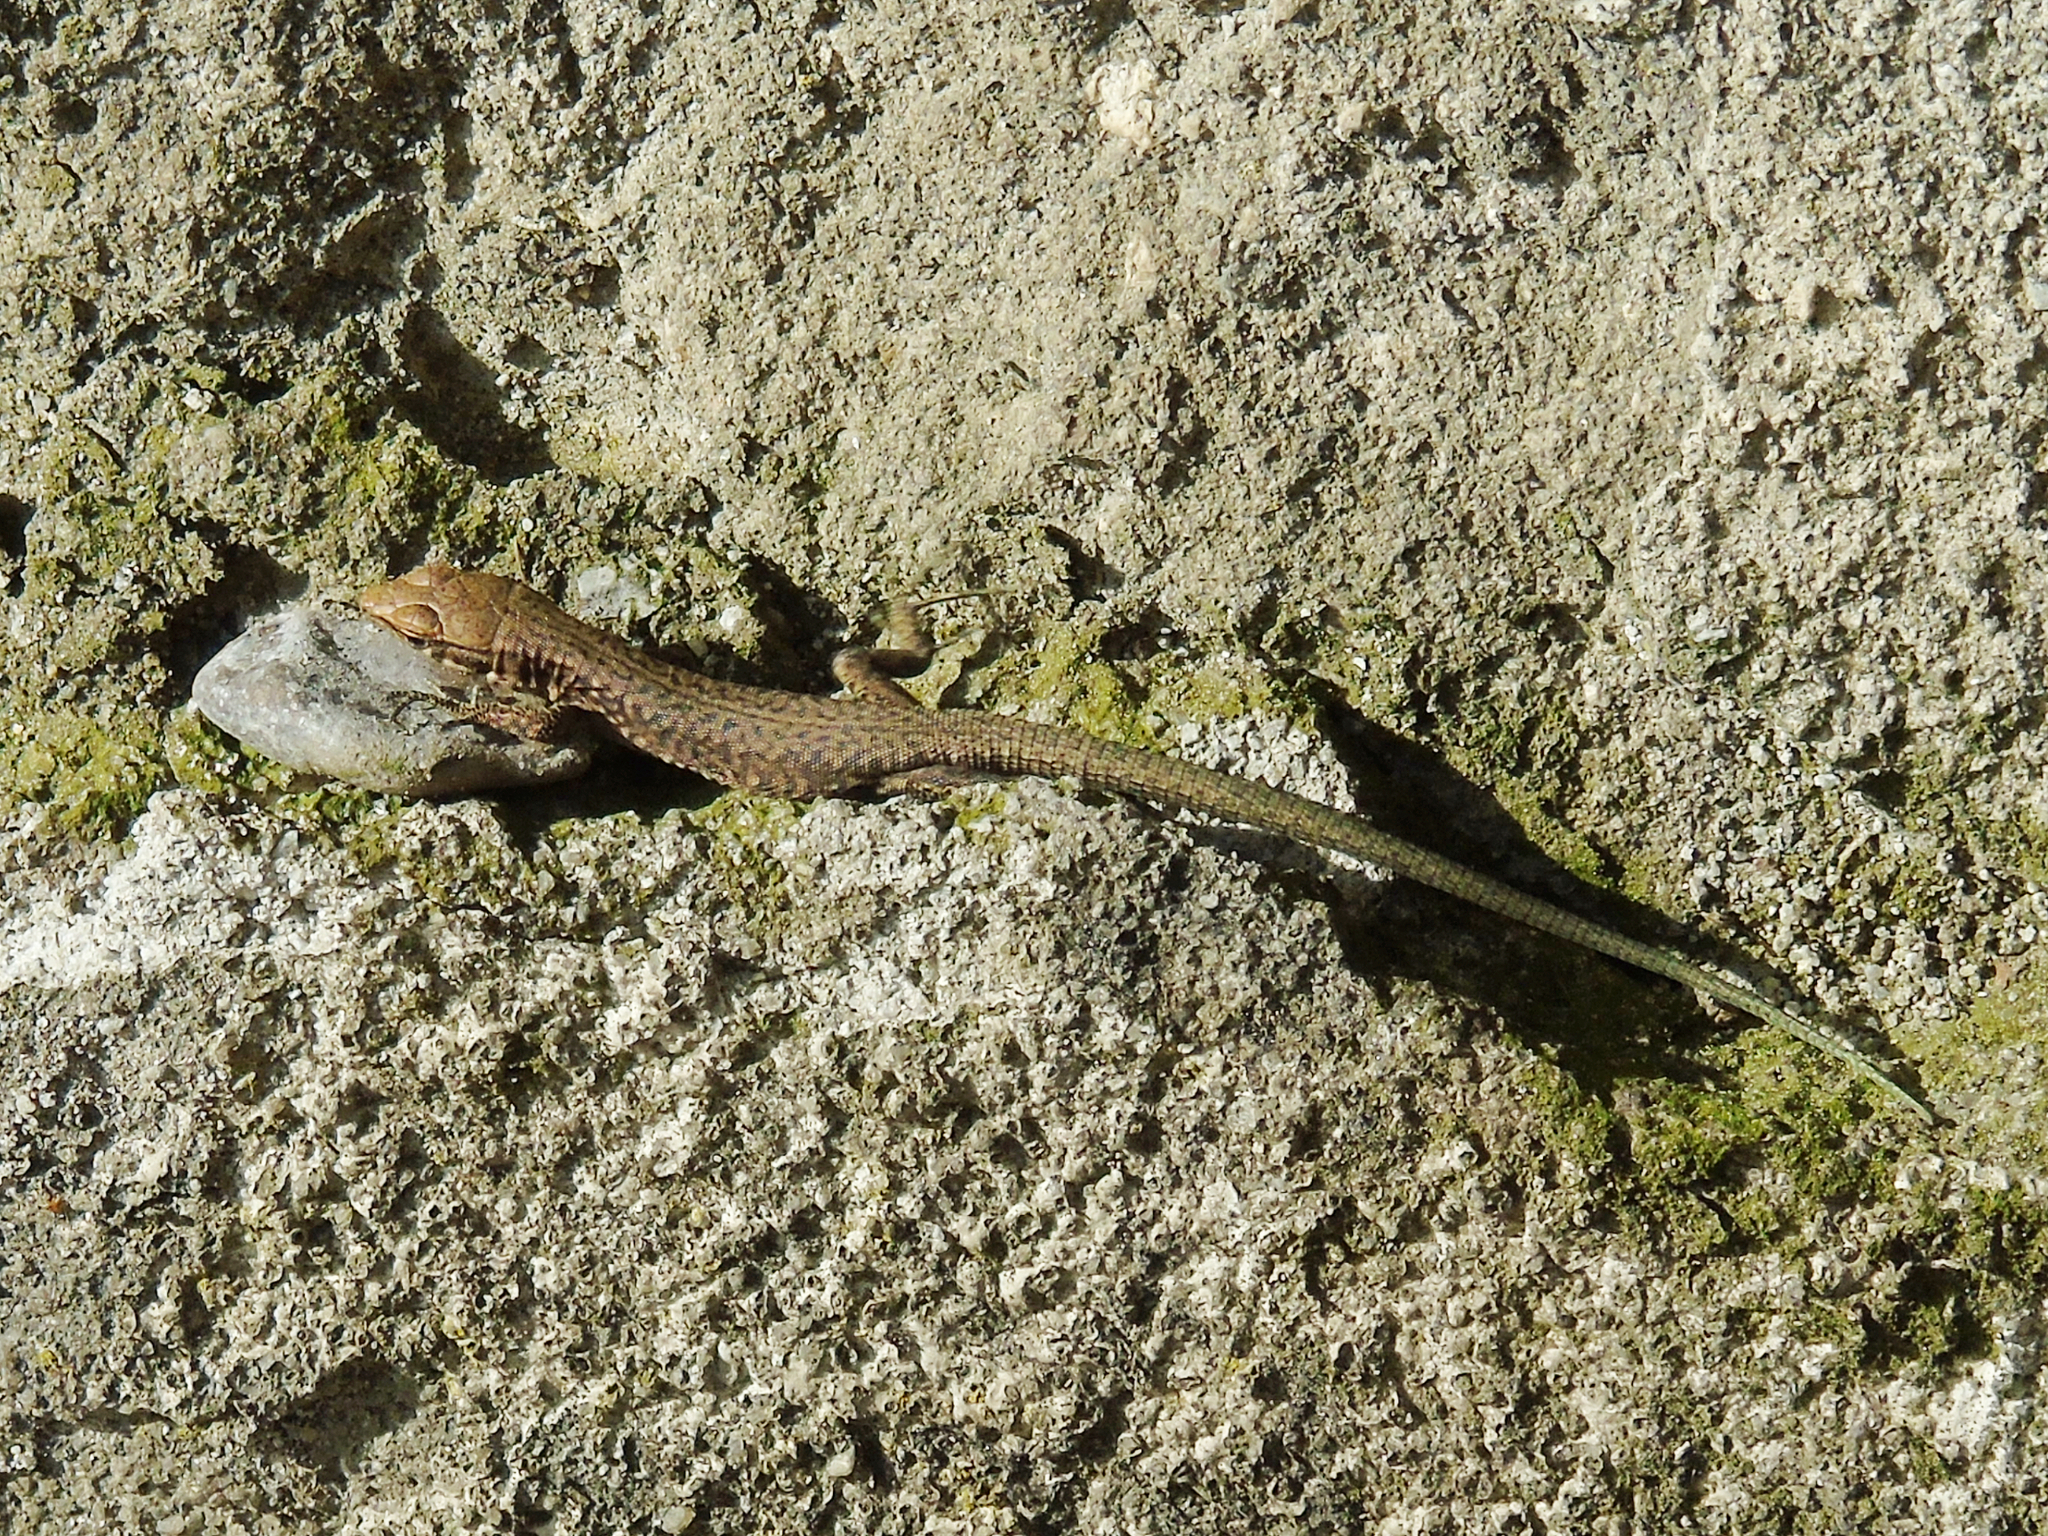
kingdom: Animalia
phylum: Chordata
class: Squamata
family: Lacertidae
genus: Darevskia
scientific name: Darevskia mixta
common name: Ajarian lizard
